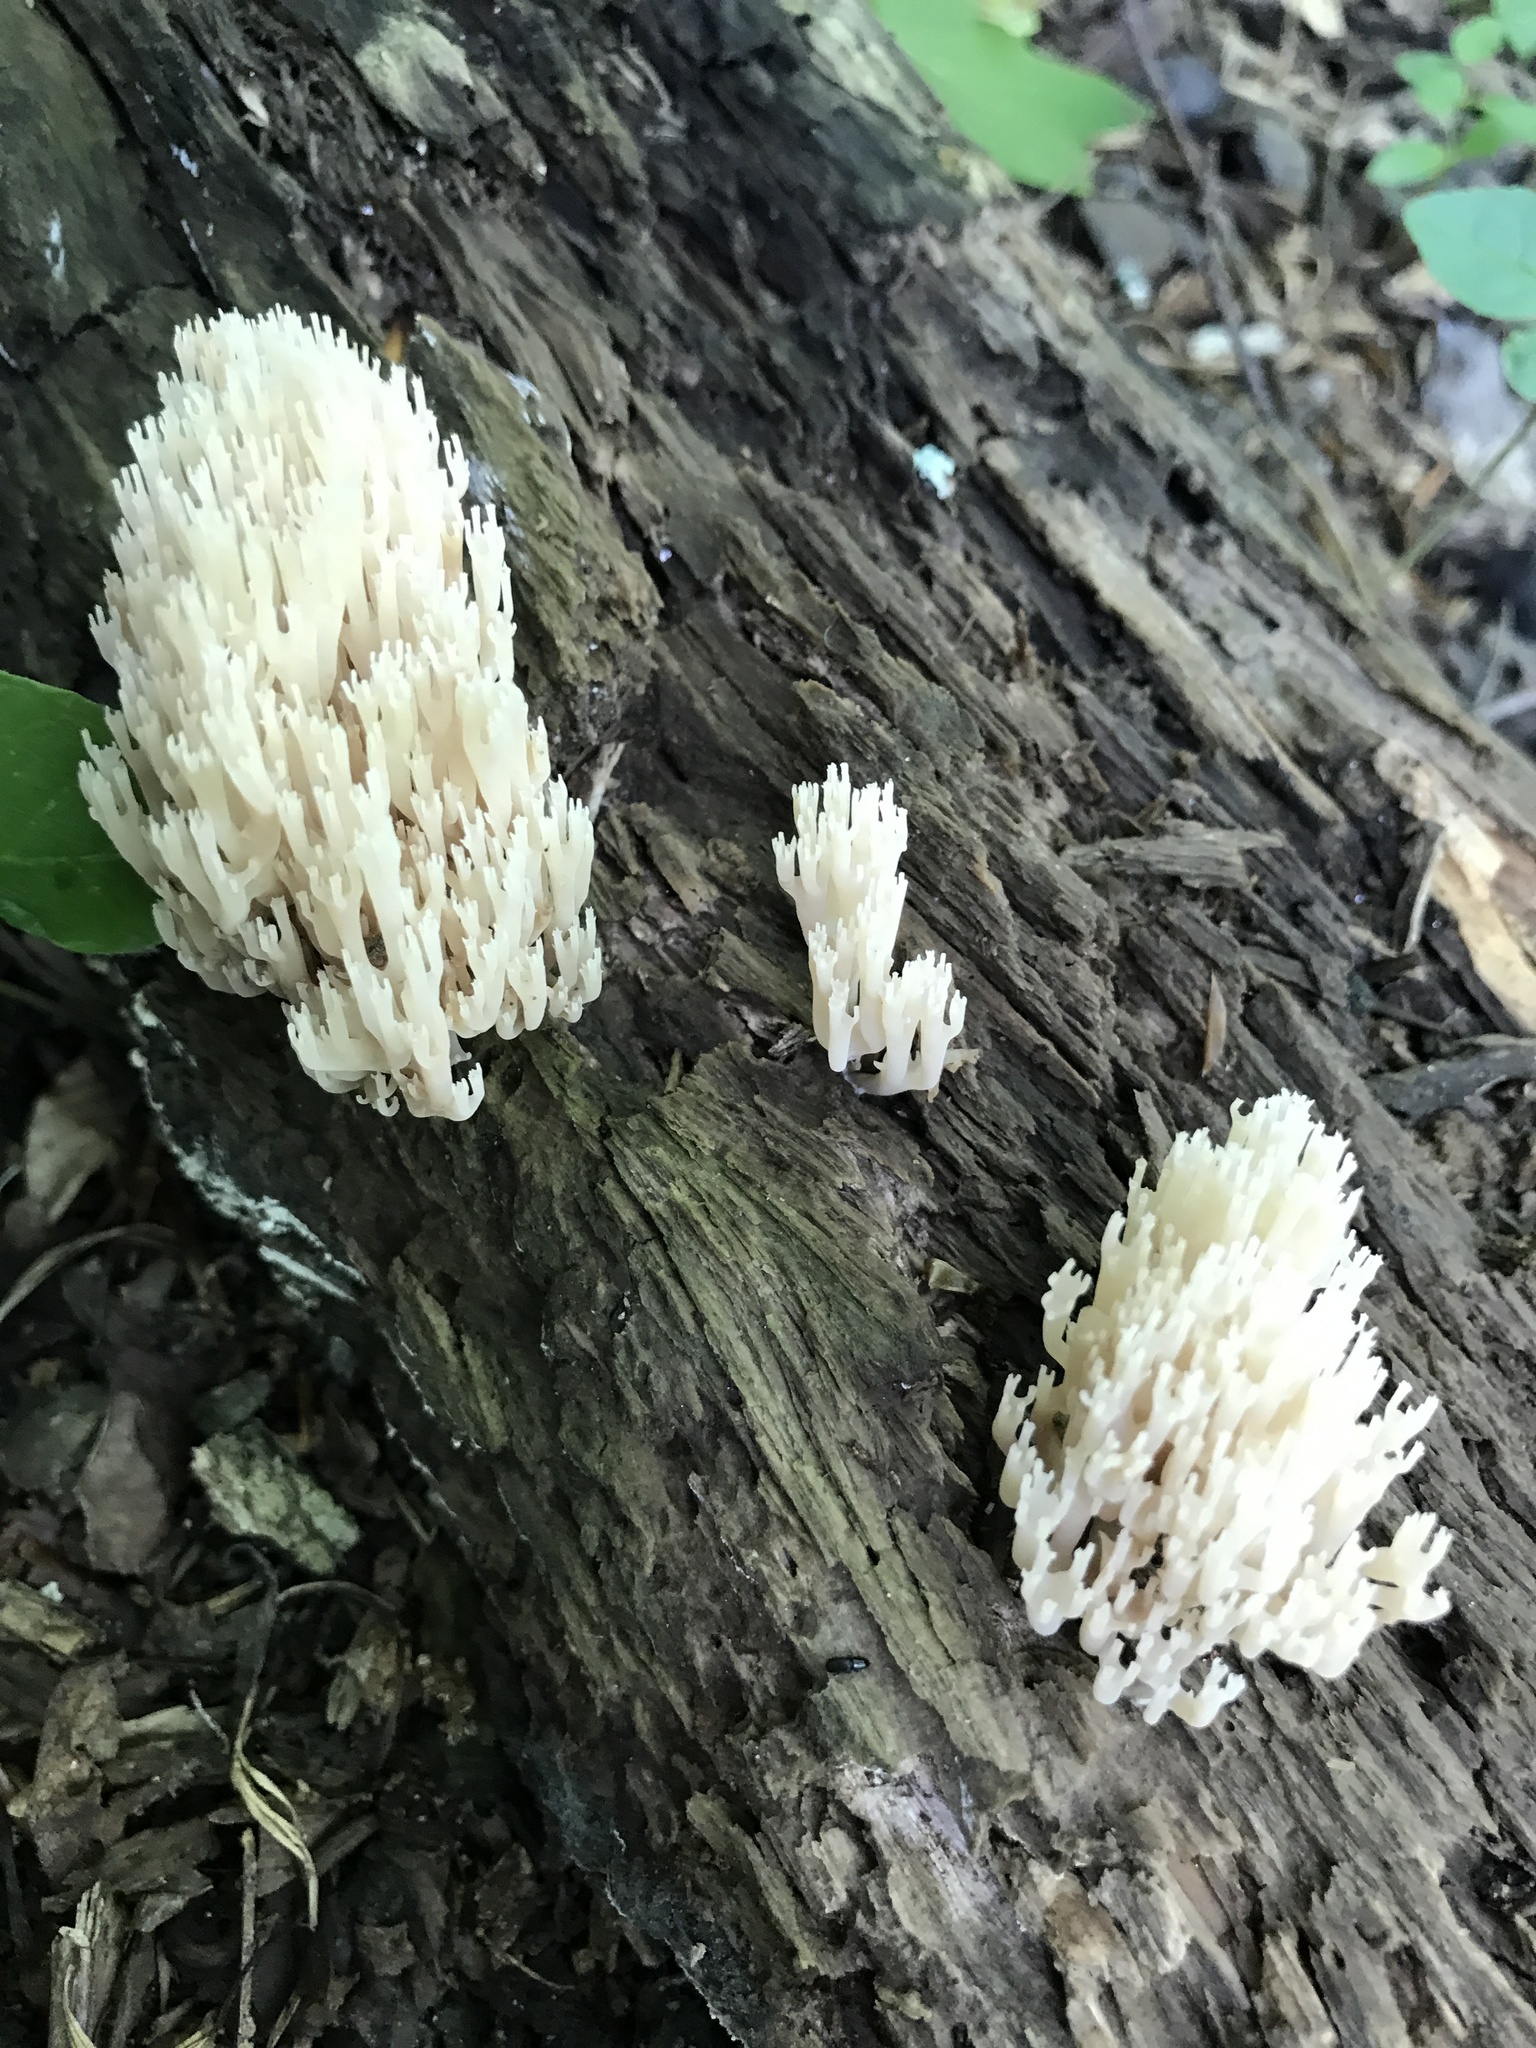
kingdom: Fungi
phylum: Basidiomycota
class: Agaricomycetes
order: Russulales
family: Auriscalpiaceae
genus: Artomyces
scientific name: Artomyces pyxidatus
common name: Crown-tipped coral fungus
